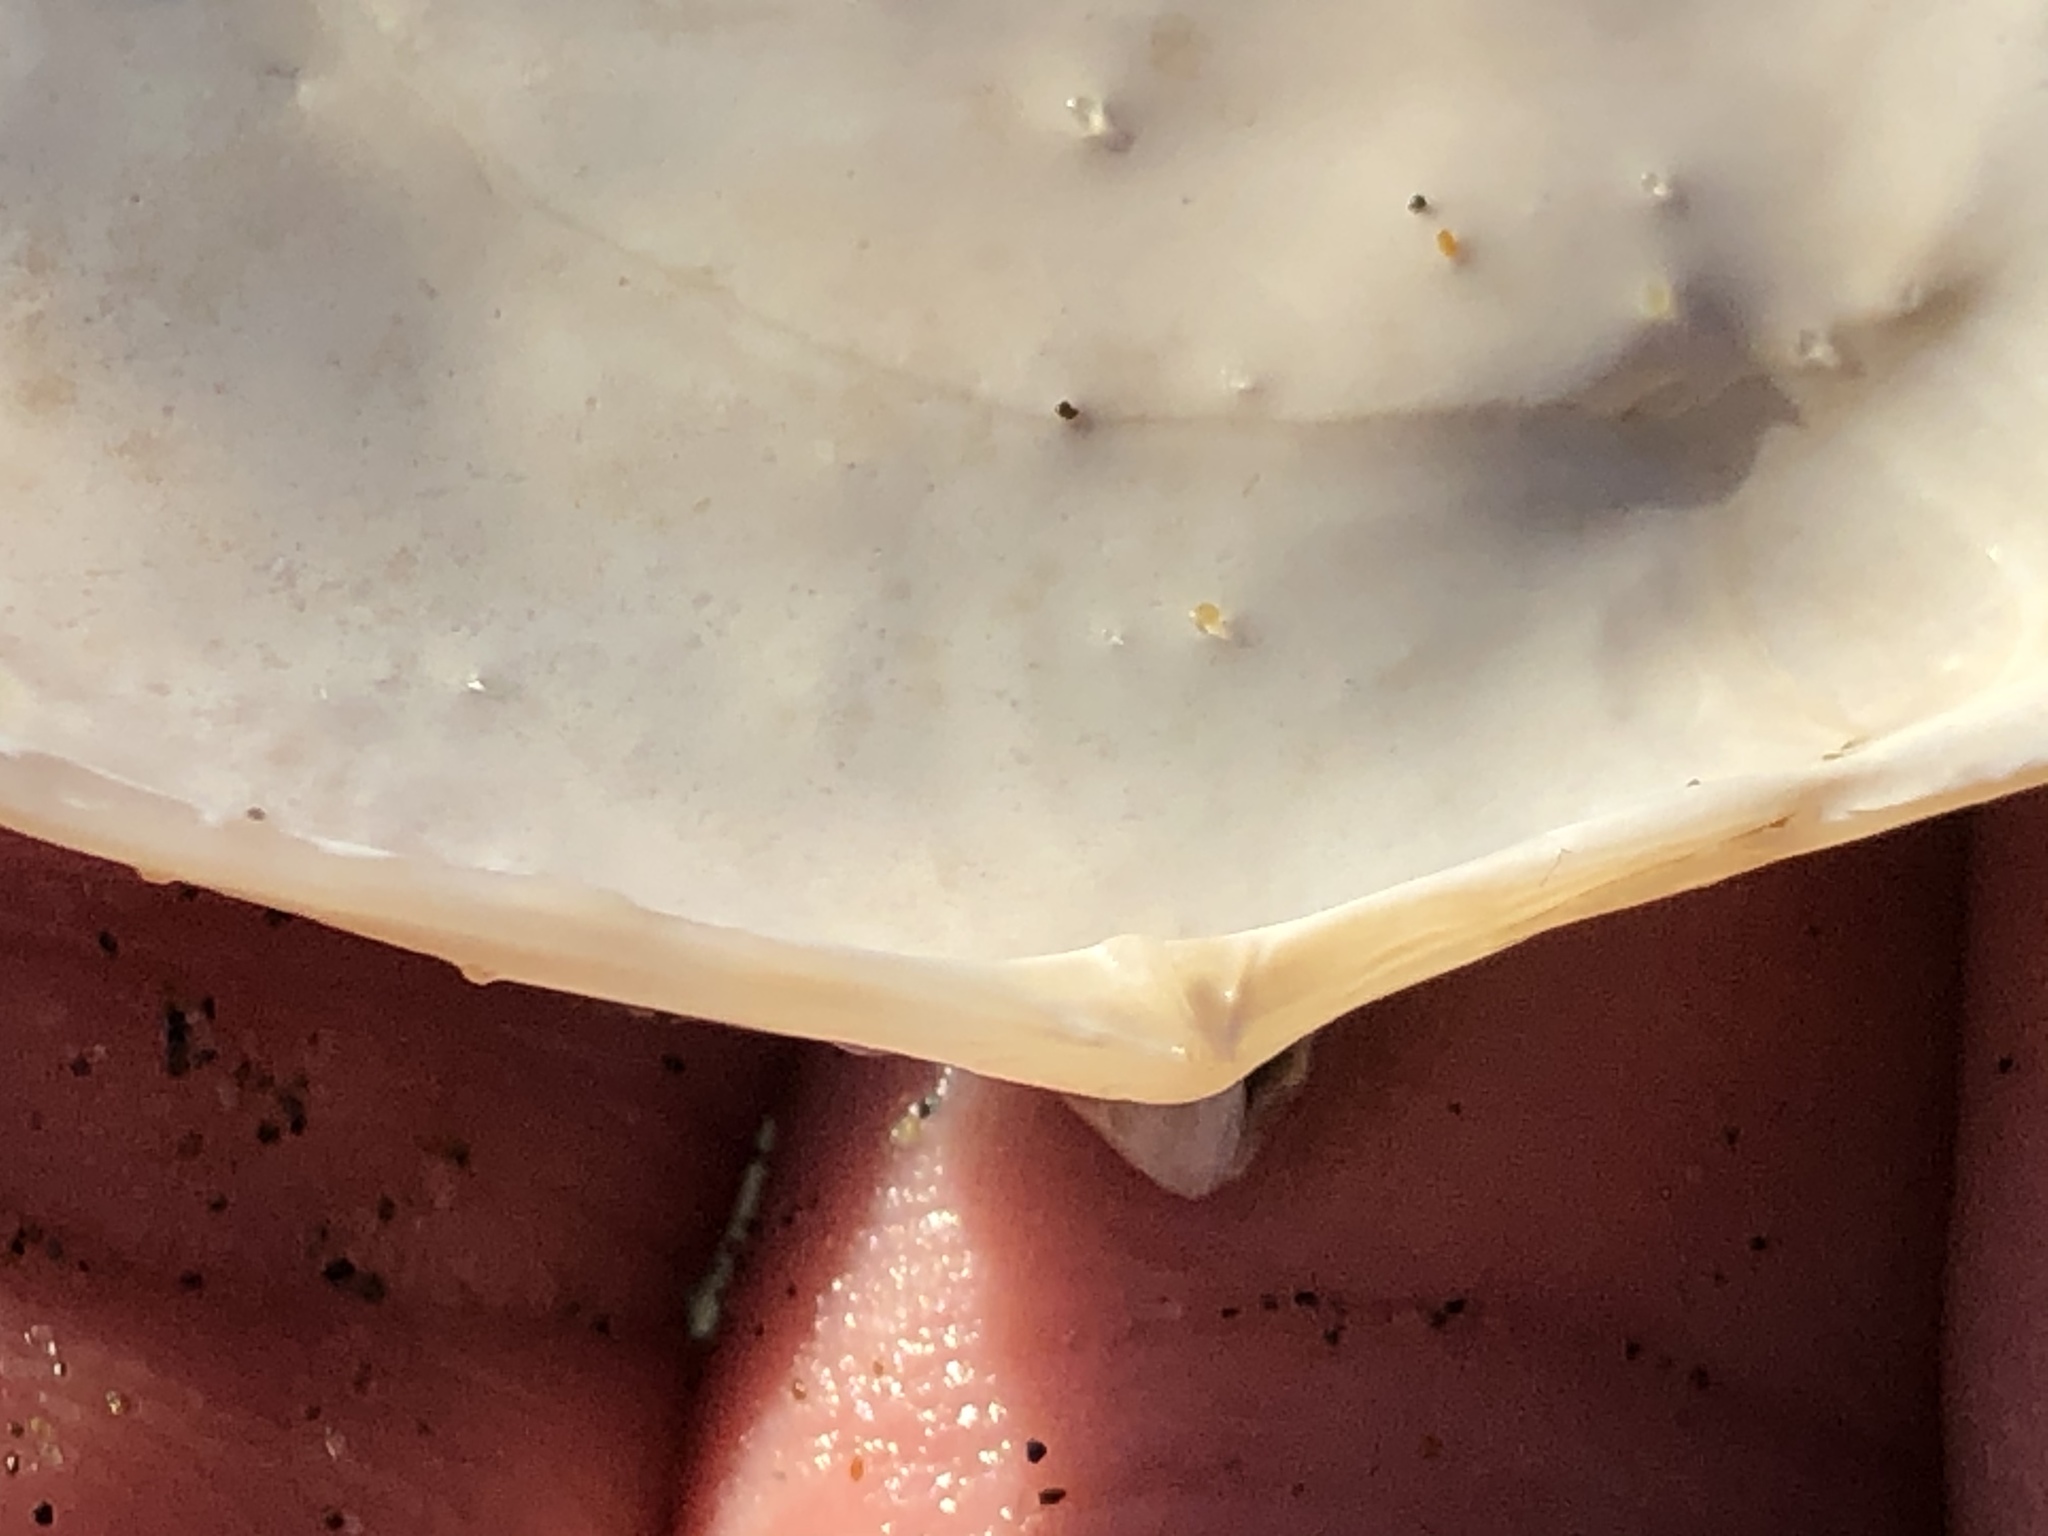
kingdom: Animalia
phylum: Mollusca
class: Bivalvia
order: Cardiida
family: Tellinidae
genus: Megangulus
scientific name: Megangulus bodegensis
